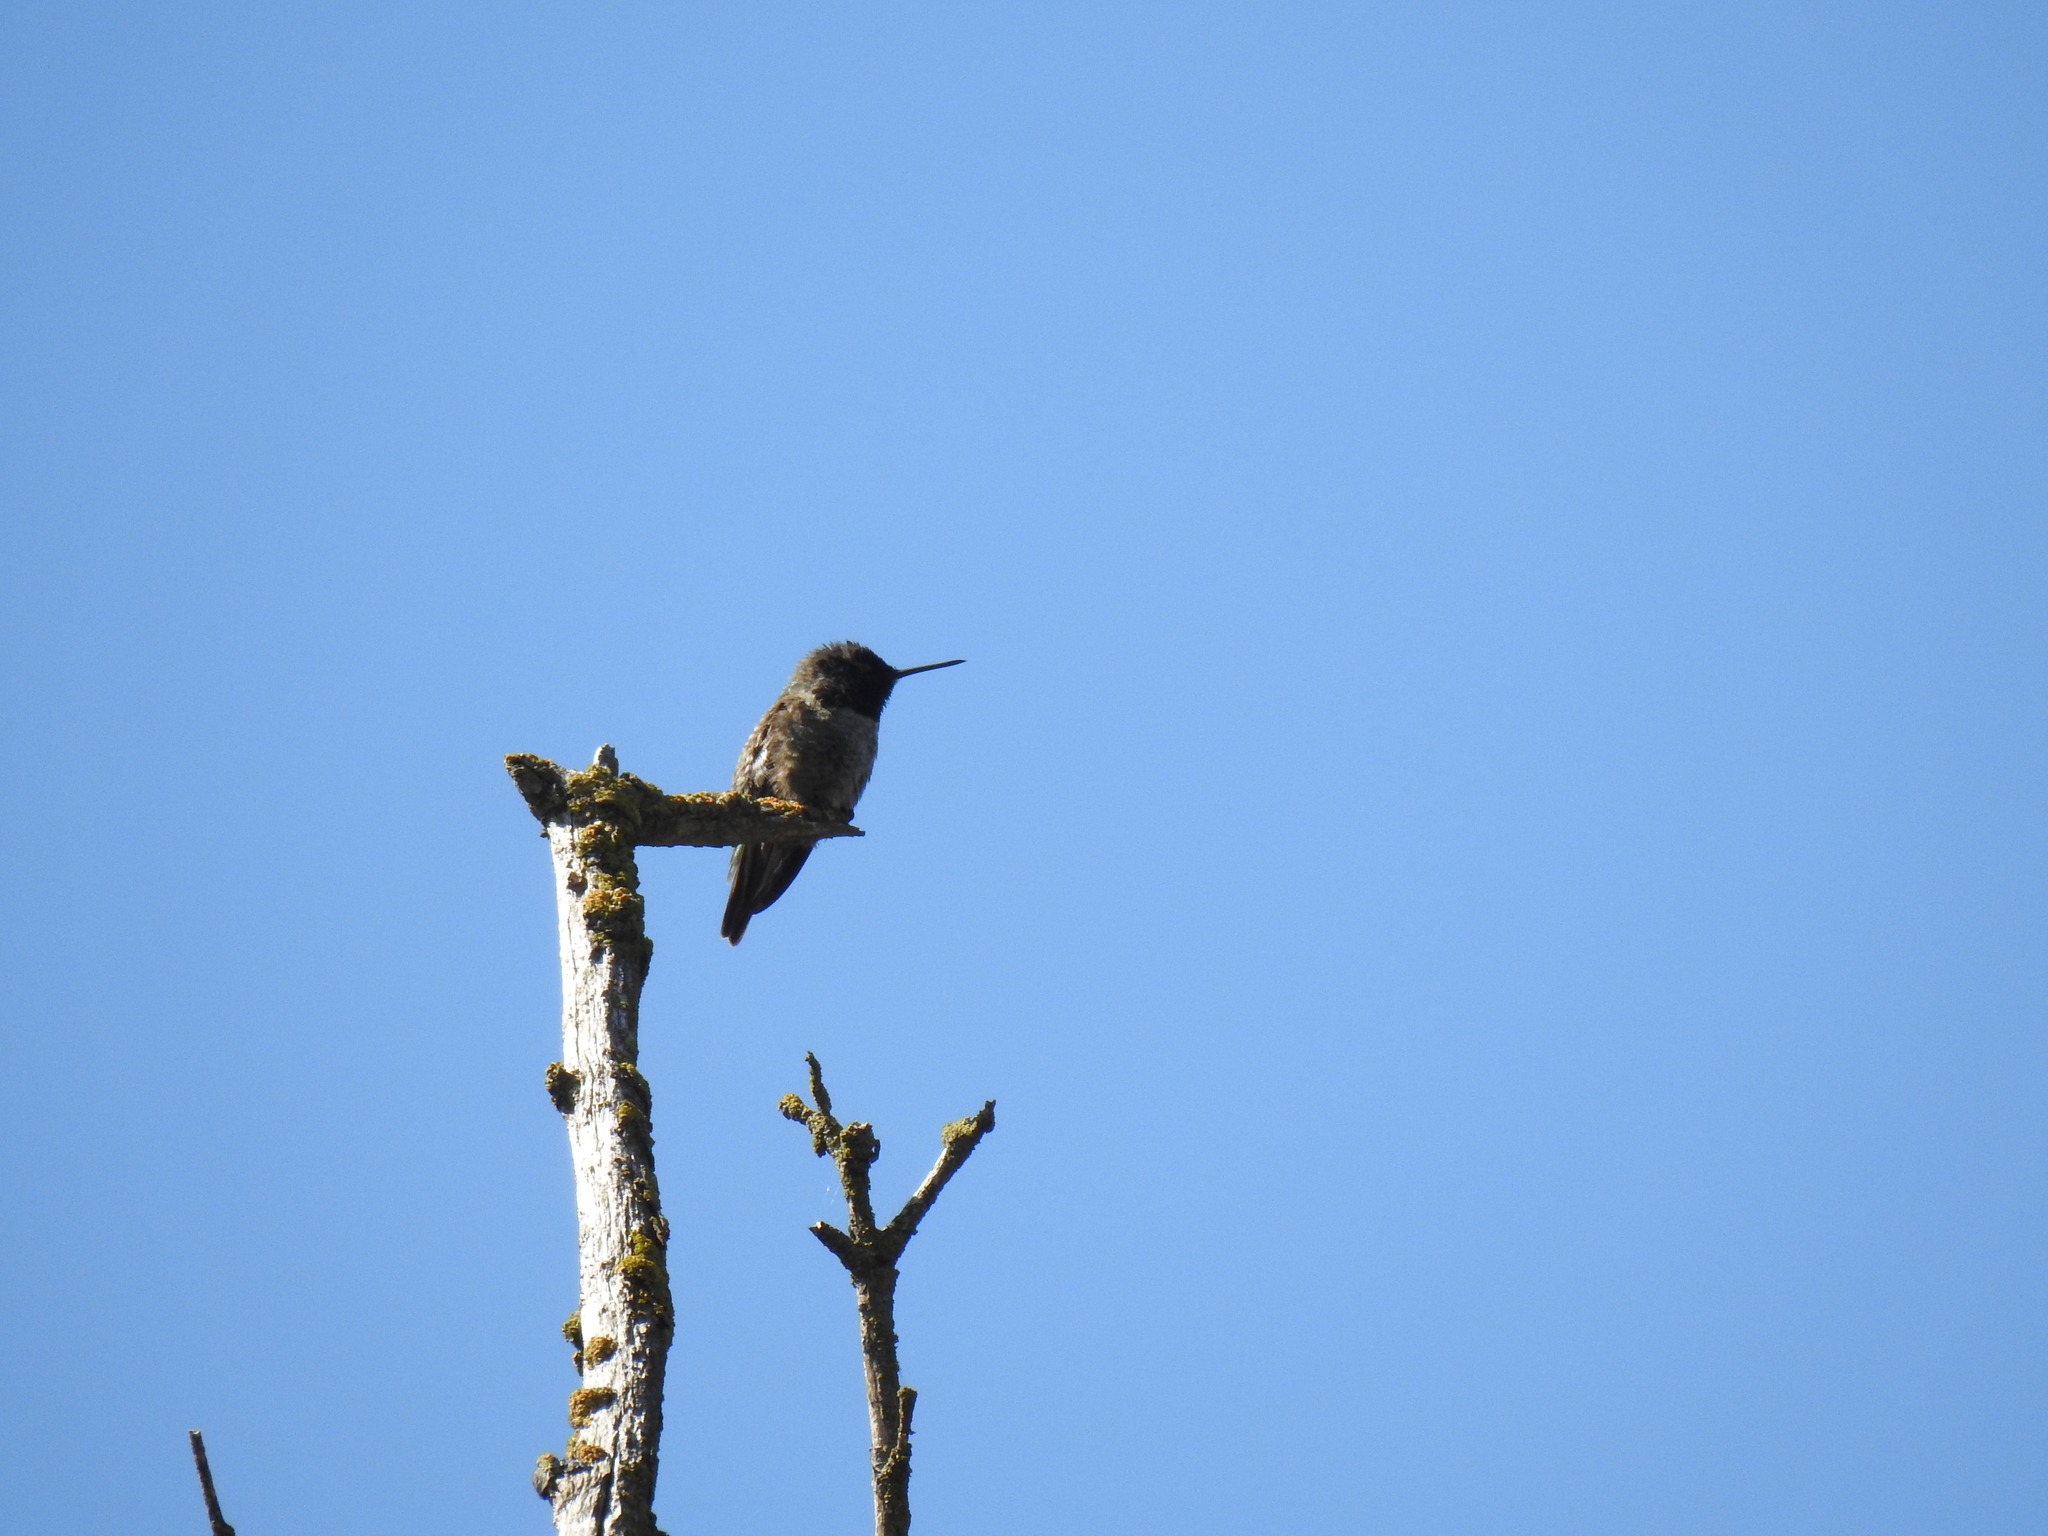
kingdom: Animalia
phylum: Chordata
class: Aves
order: Apodiformes
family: Trochilidae
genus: Calypte
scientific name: Calypte anna
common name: Anna's hummingbird
